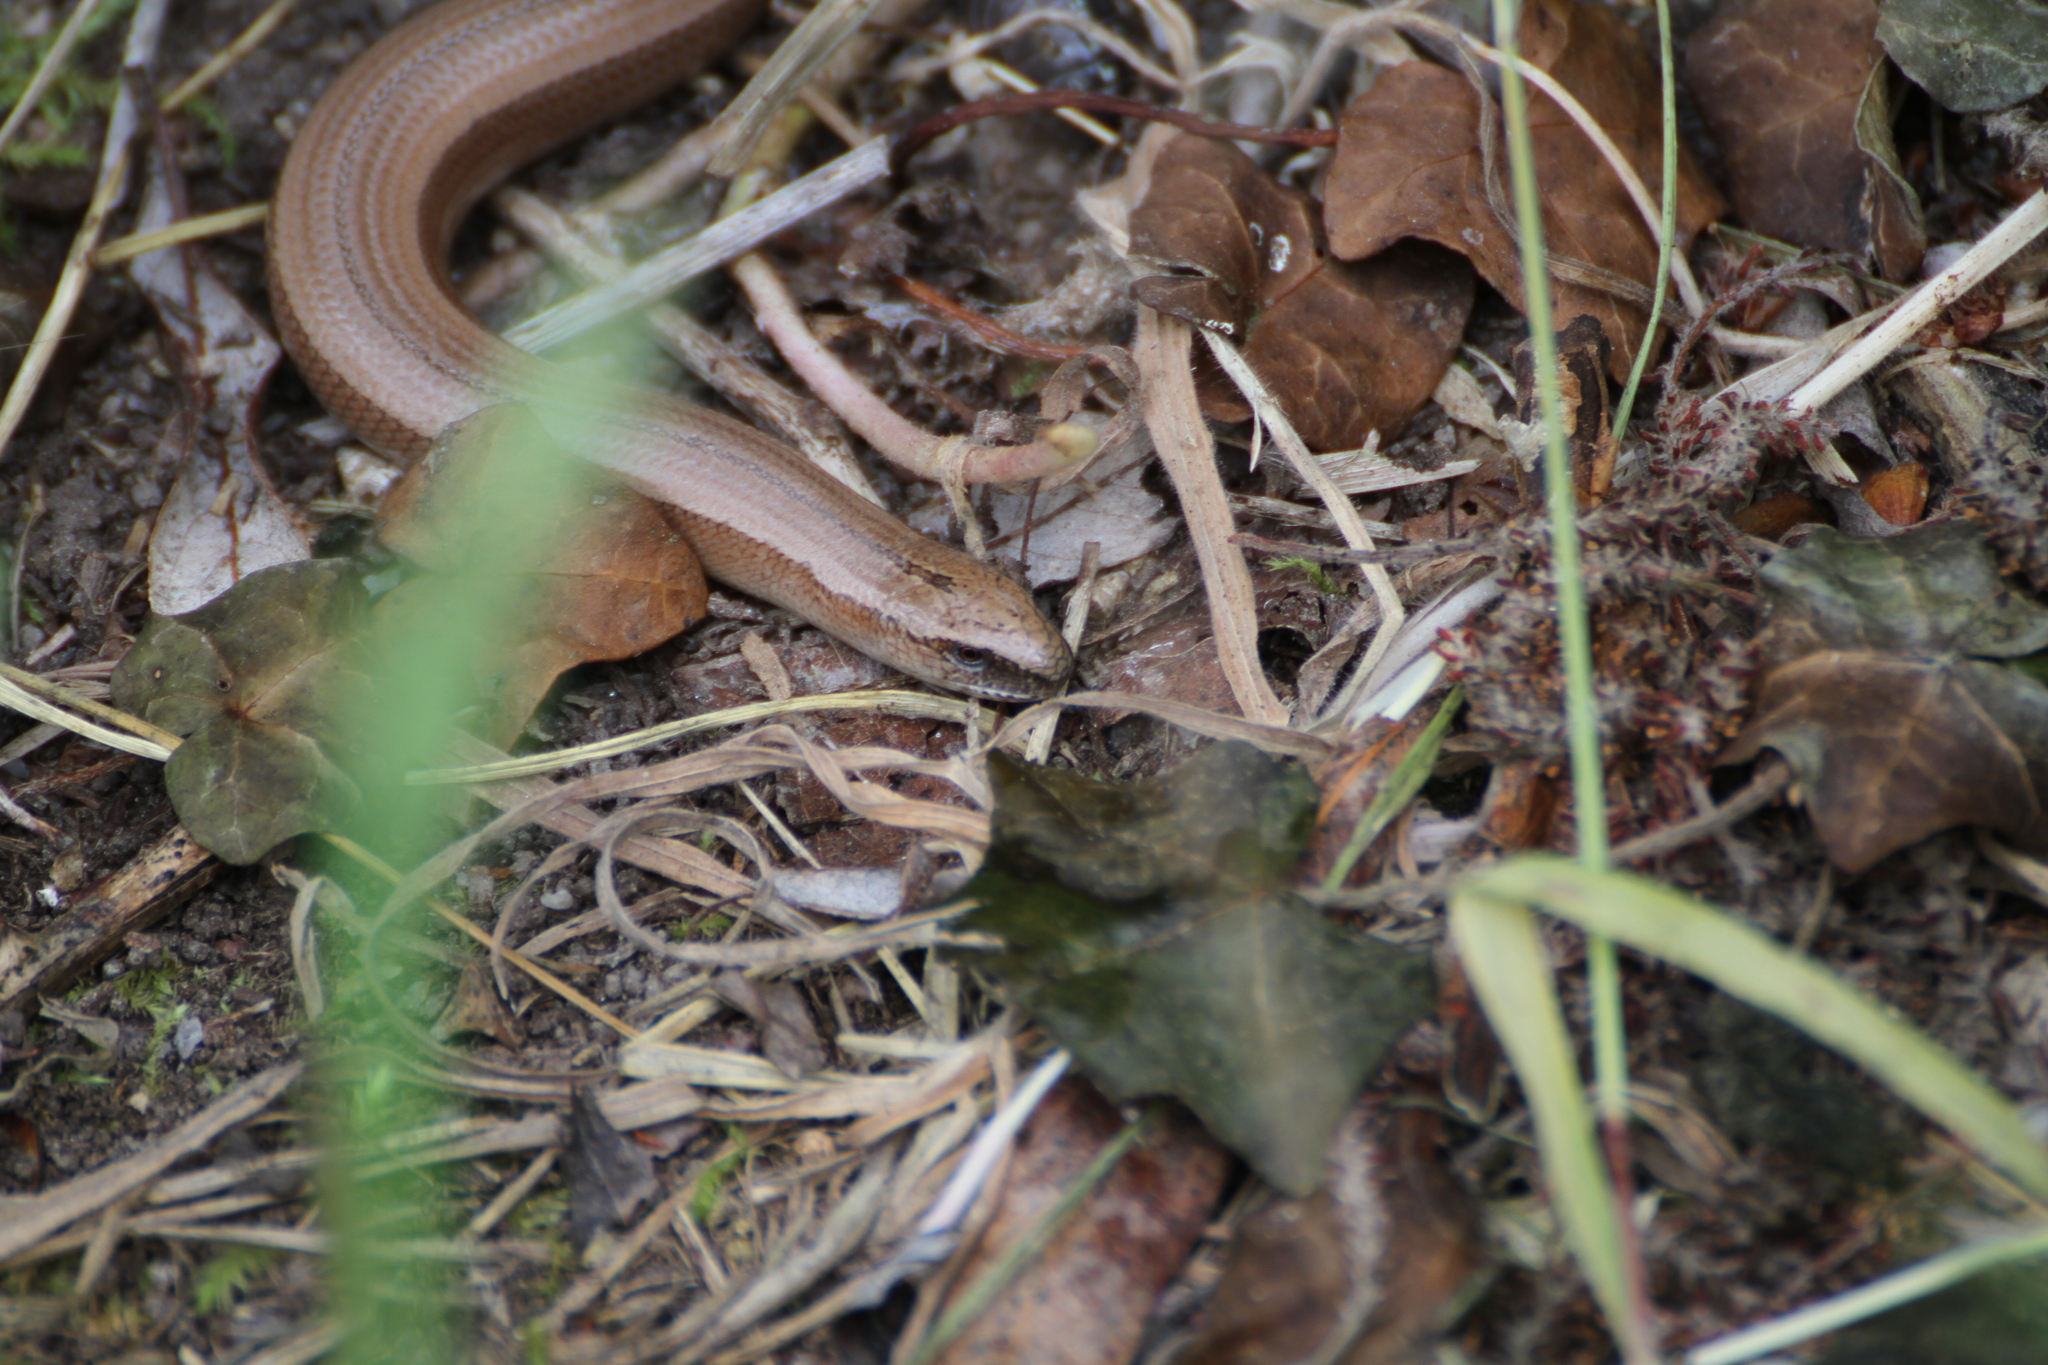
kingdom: Animalia
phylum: Chordata
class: Squamata
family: Anguidae
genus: Anguis
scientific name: Anguis fragilis
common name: Slow worm
